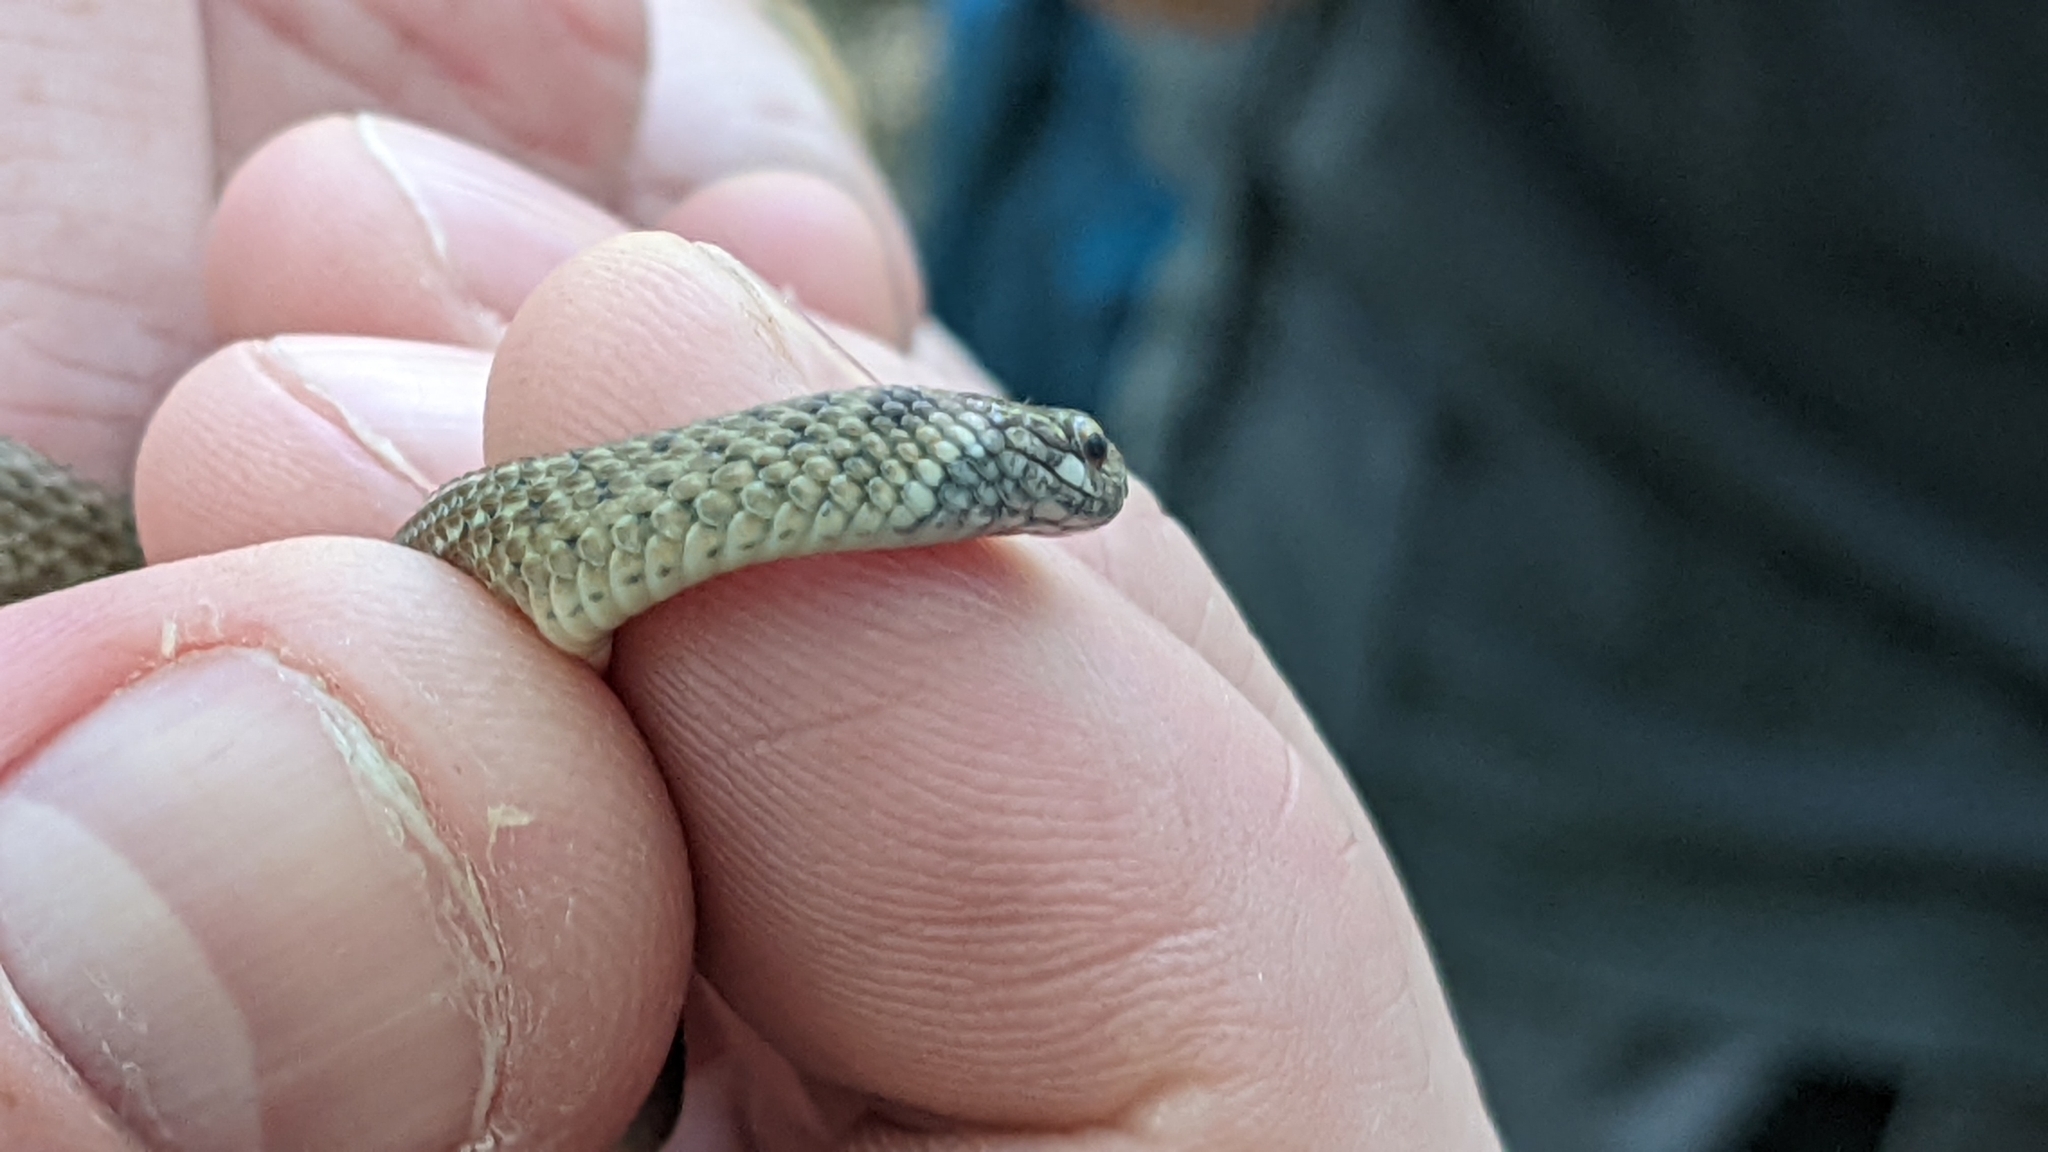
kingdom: Animalia
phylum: Chordata
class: Squamata
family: Colubridae
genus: Storeria
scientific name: Storeria occipitomaculata
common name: Redbelly snake
